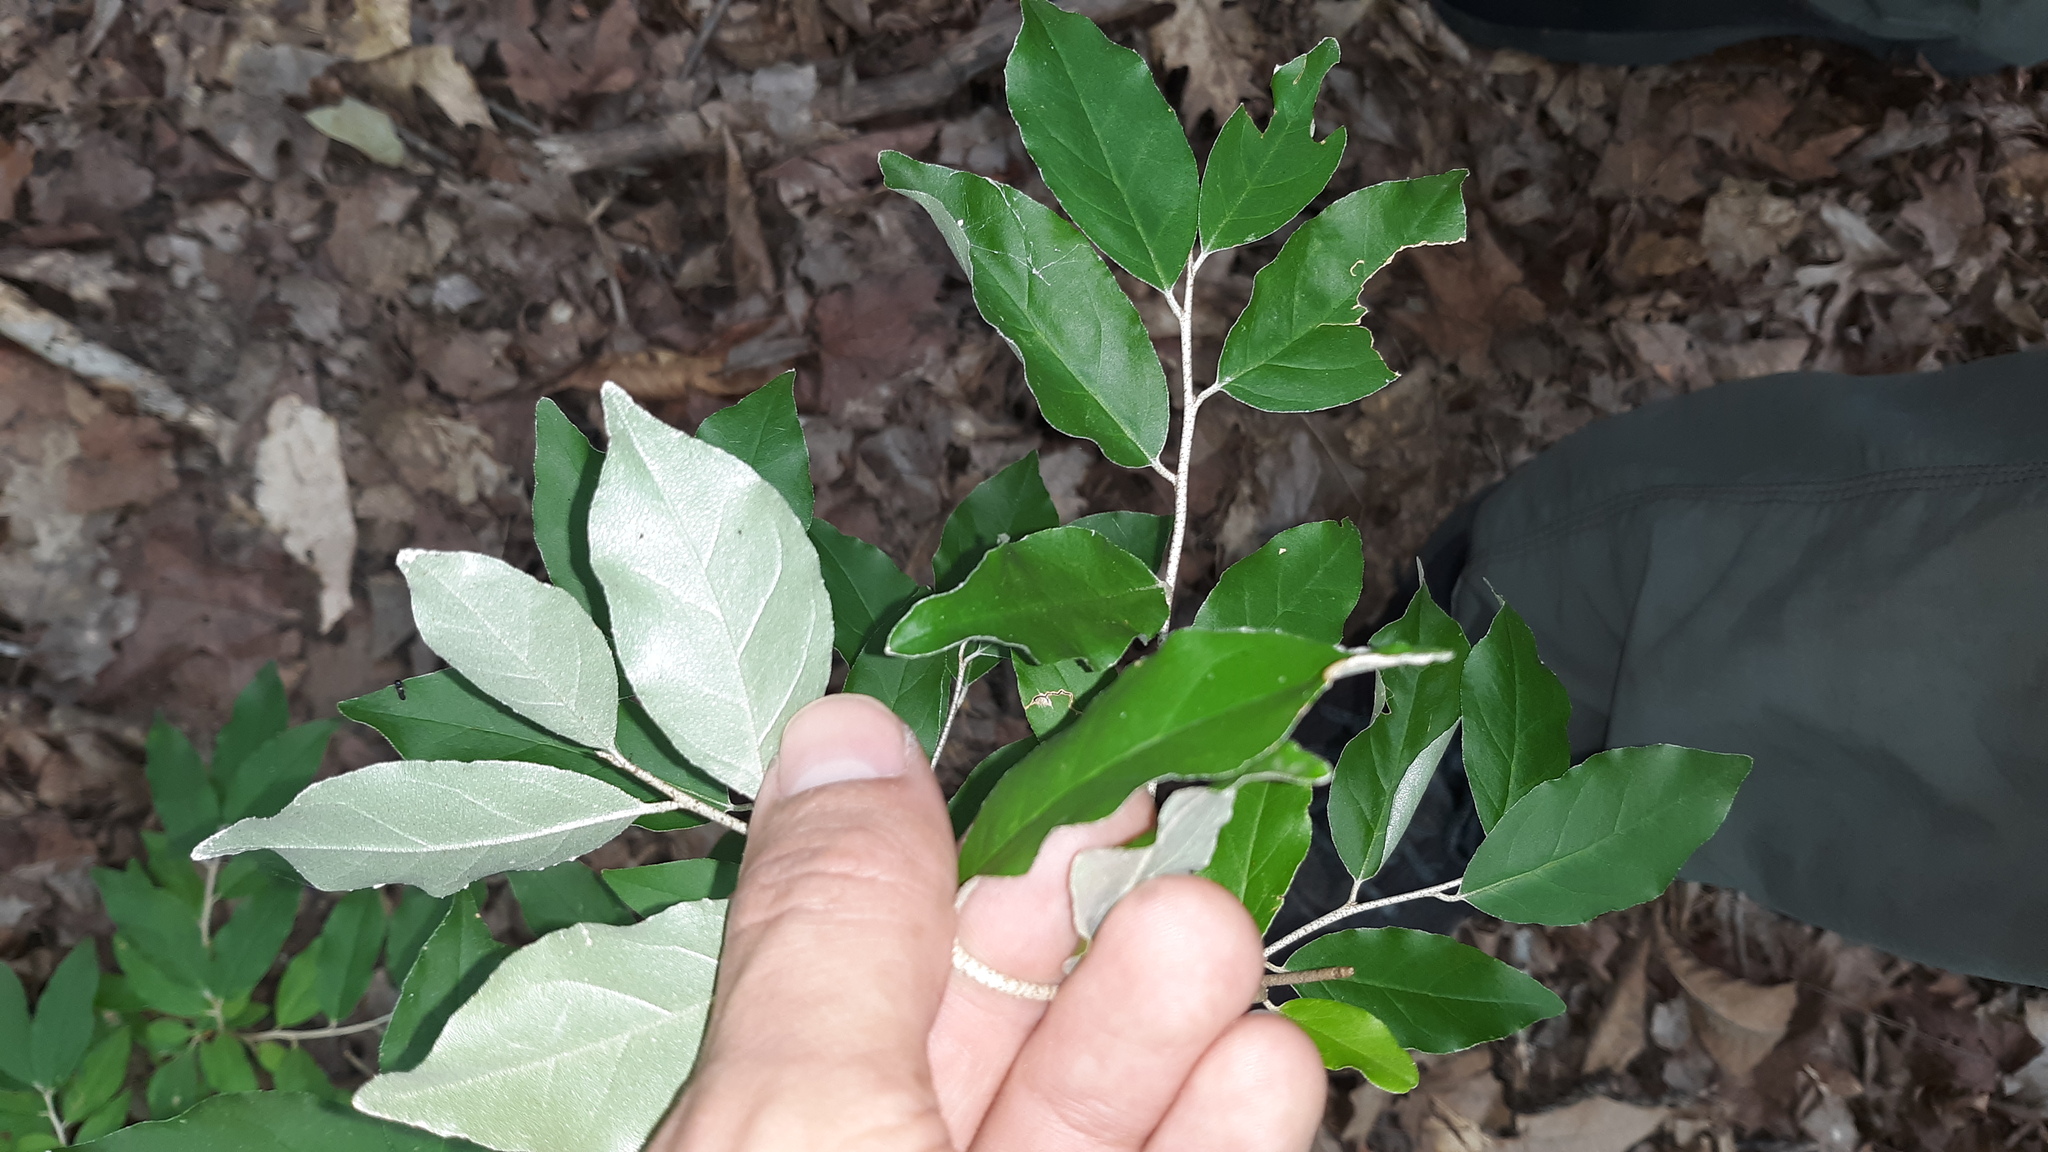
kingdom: Plantae
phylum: Tracheophyta
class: Magnoliopsida
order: Rosales
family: Elaeagnaceae
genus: Elaeagnus
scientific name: Elaeagnus umbellata
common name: Autumn olive
